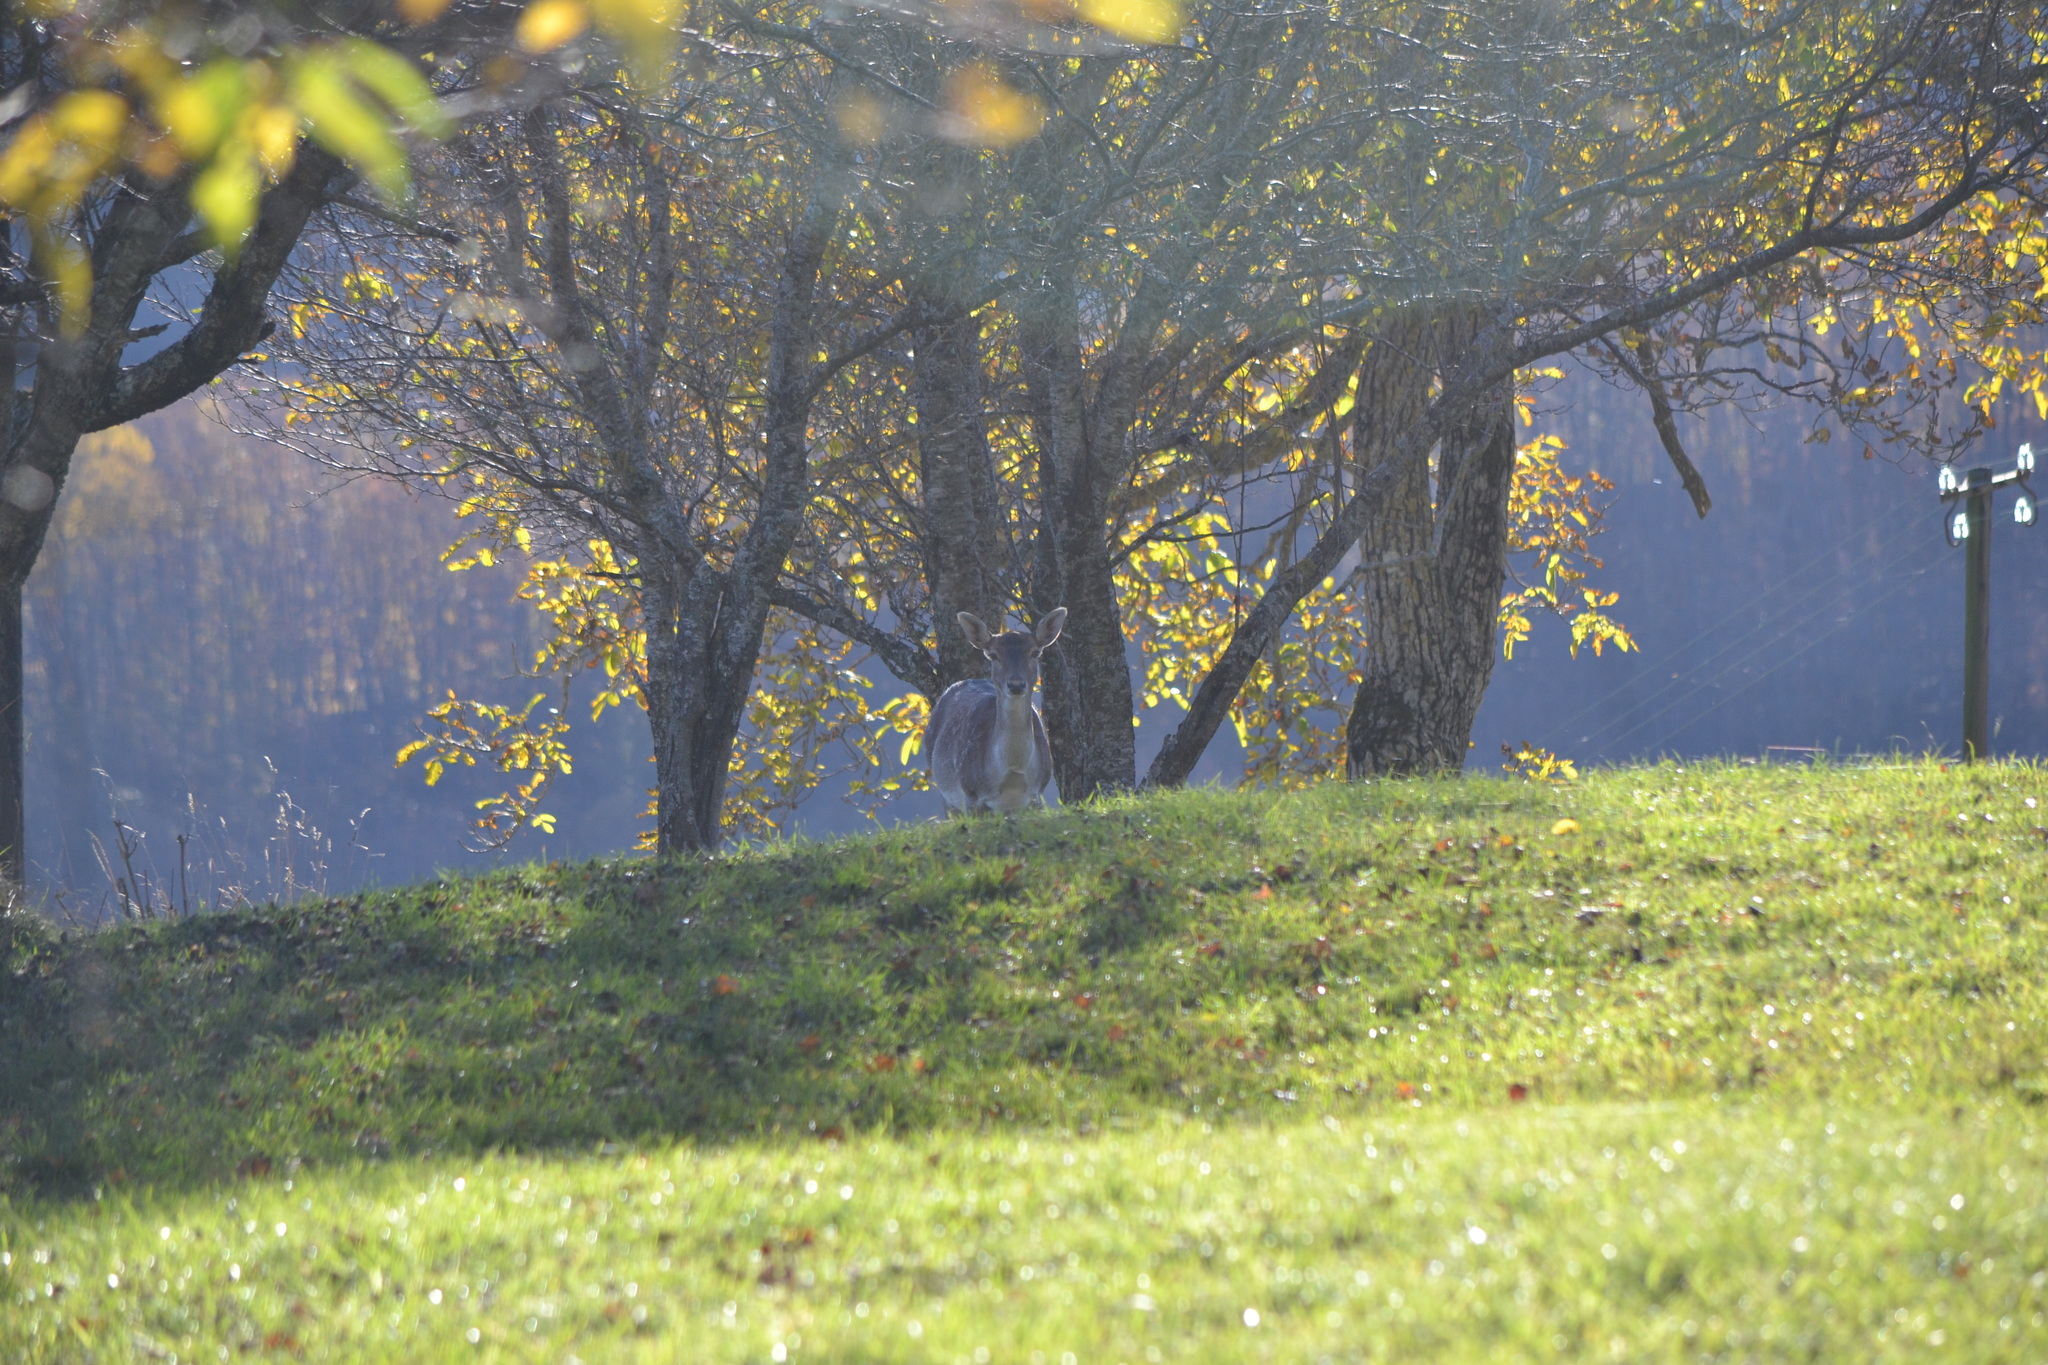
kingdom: Animalia
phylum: Chordata
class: Mammalia
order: Artiodactyla
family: Cervidae
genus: Dama
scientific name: Dama dama
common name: Fallow deer
